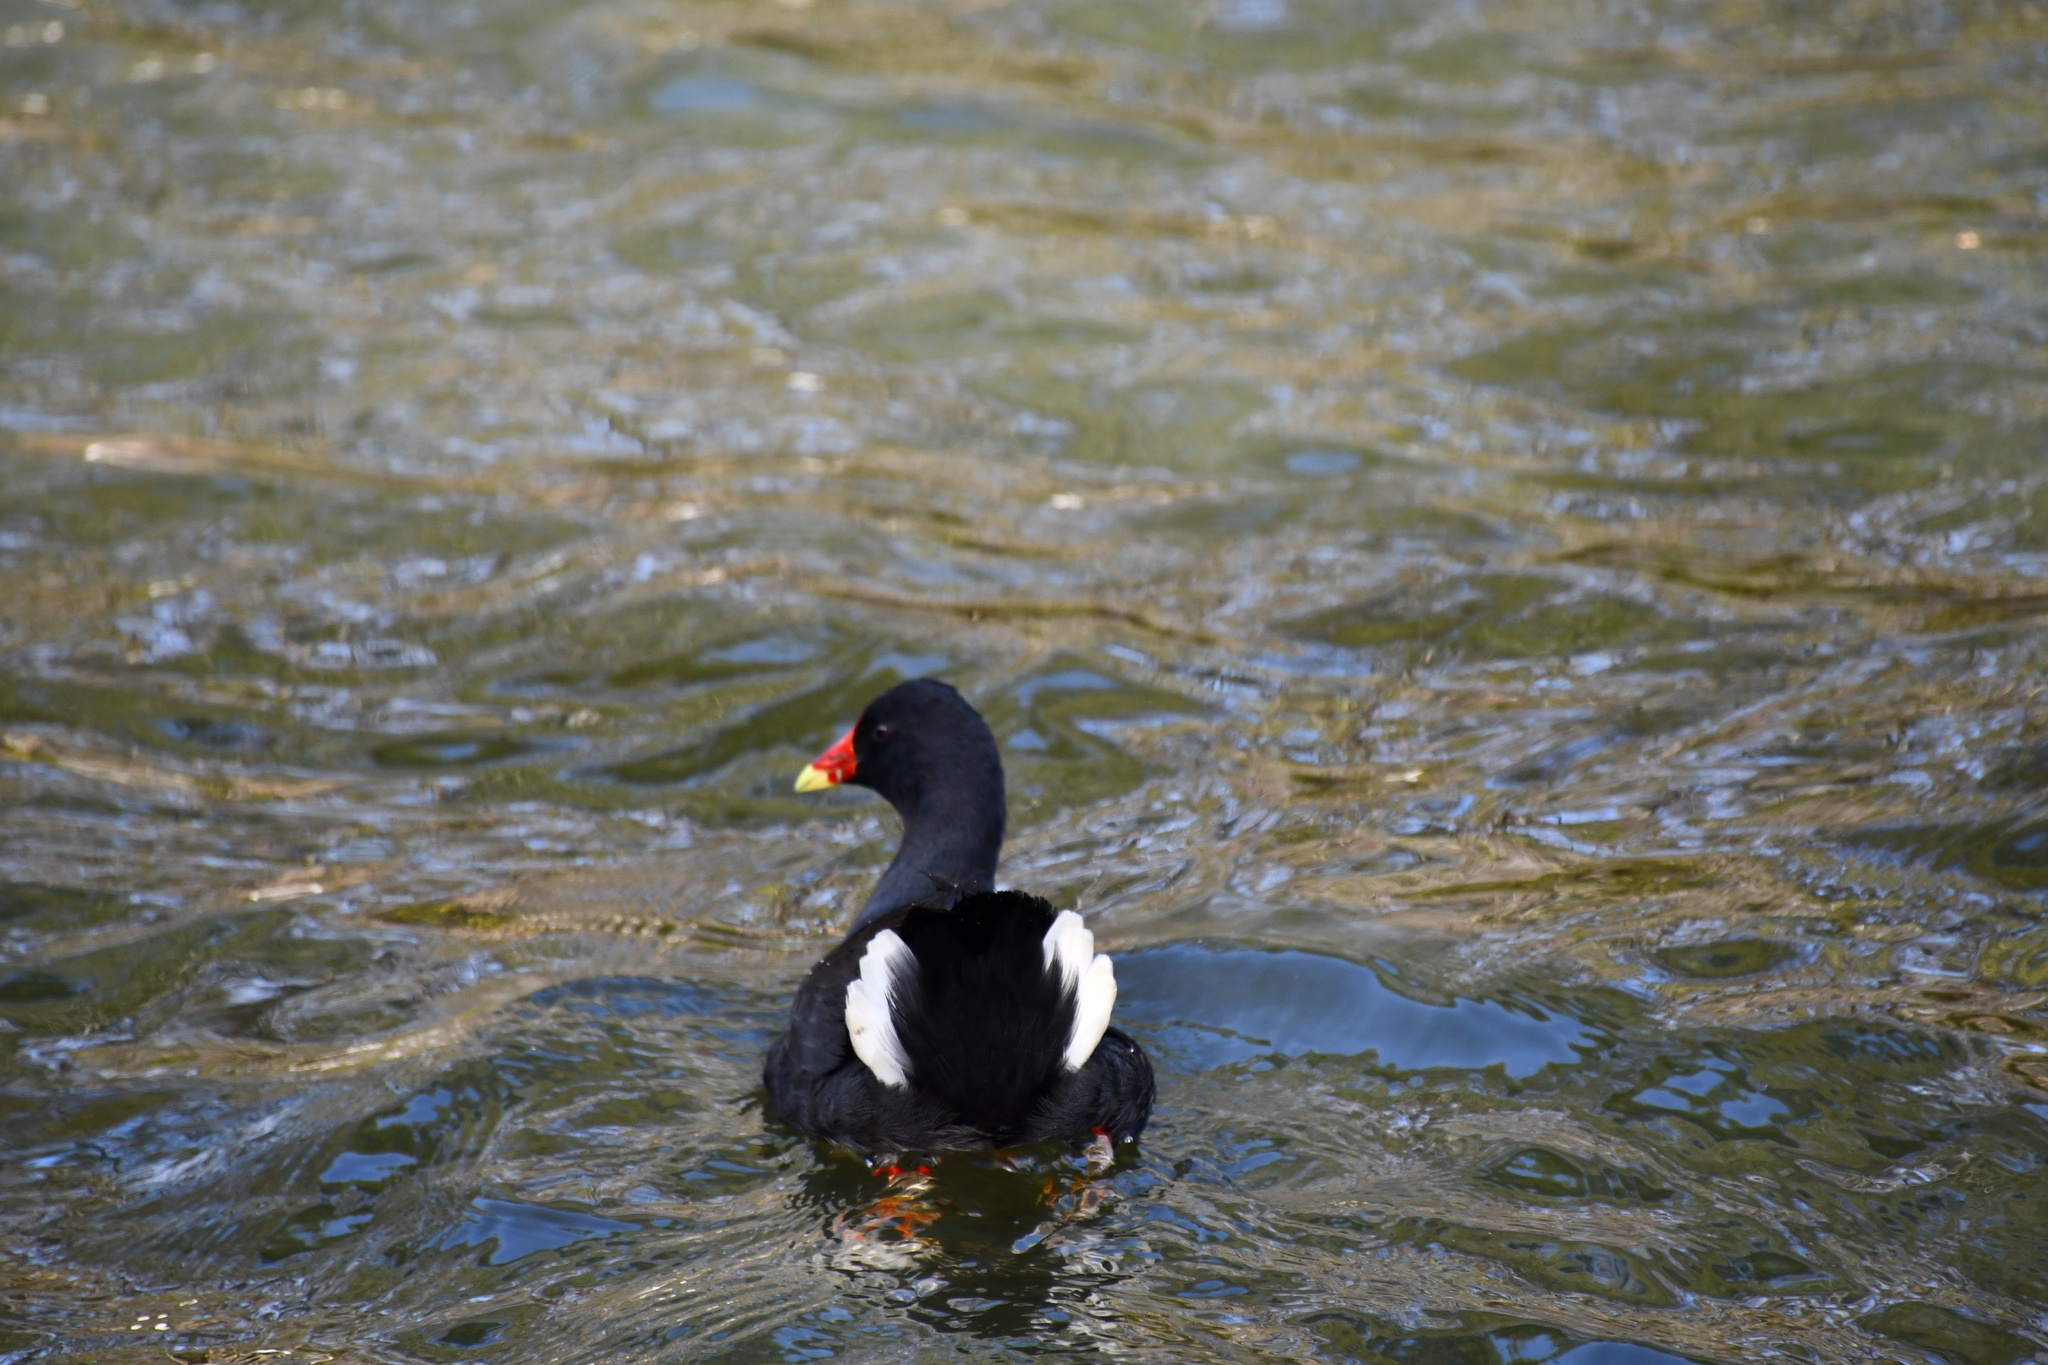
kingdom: Animalia
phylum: Chordata
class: Aves
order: Gruiformes
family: Rallidae
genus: Gallinula
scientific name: Gallinula tenebrosa
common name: Dusky moorhen
